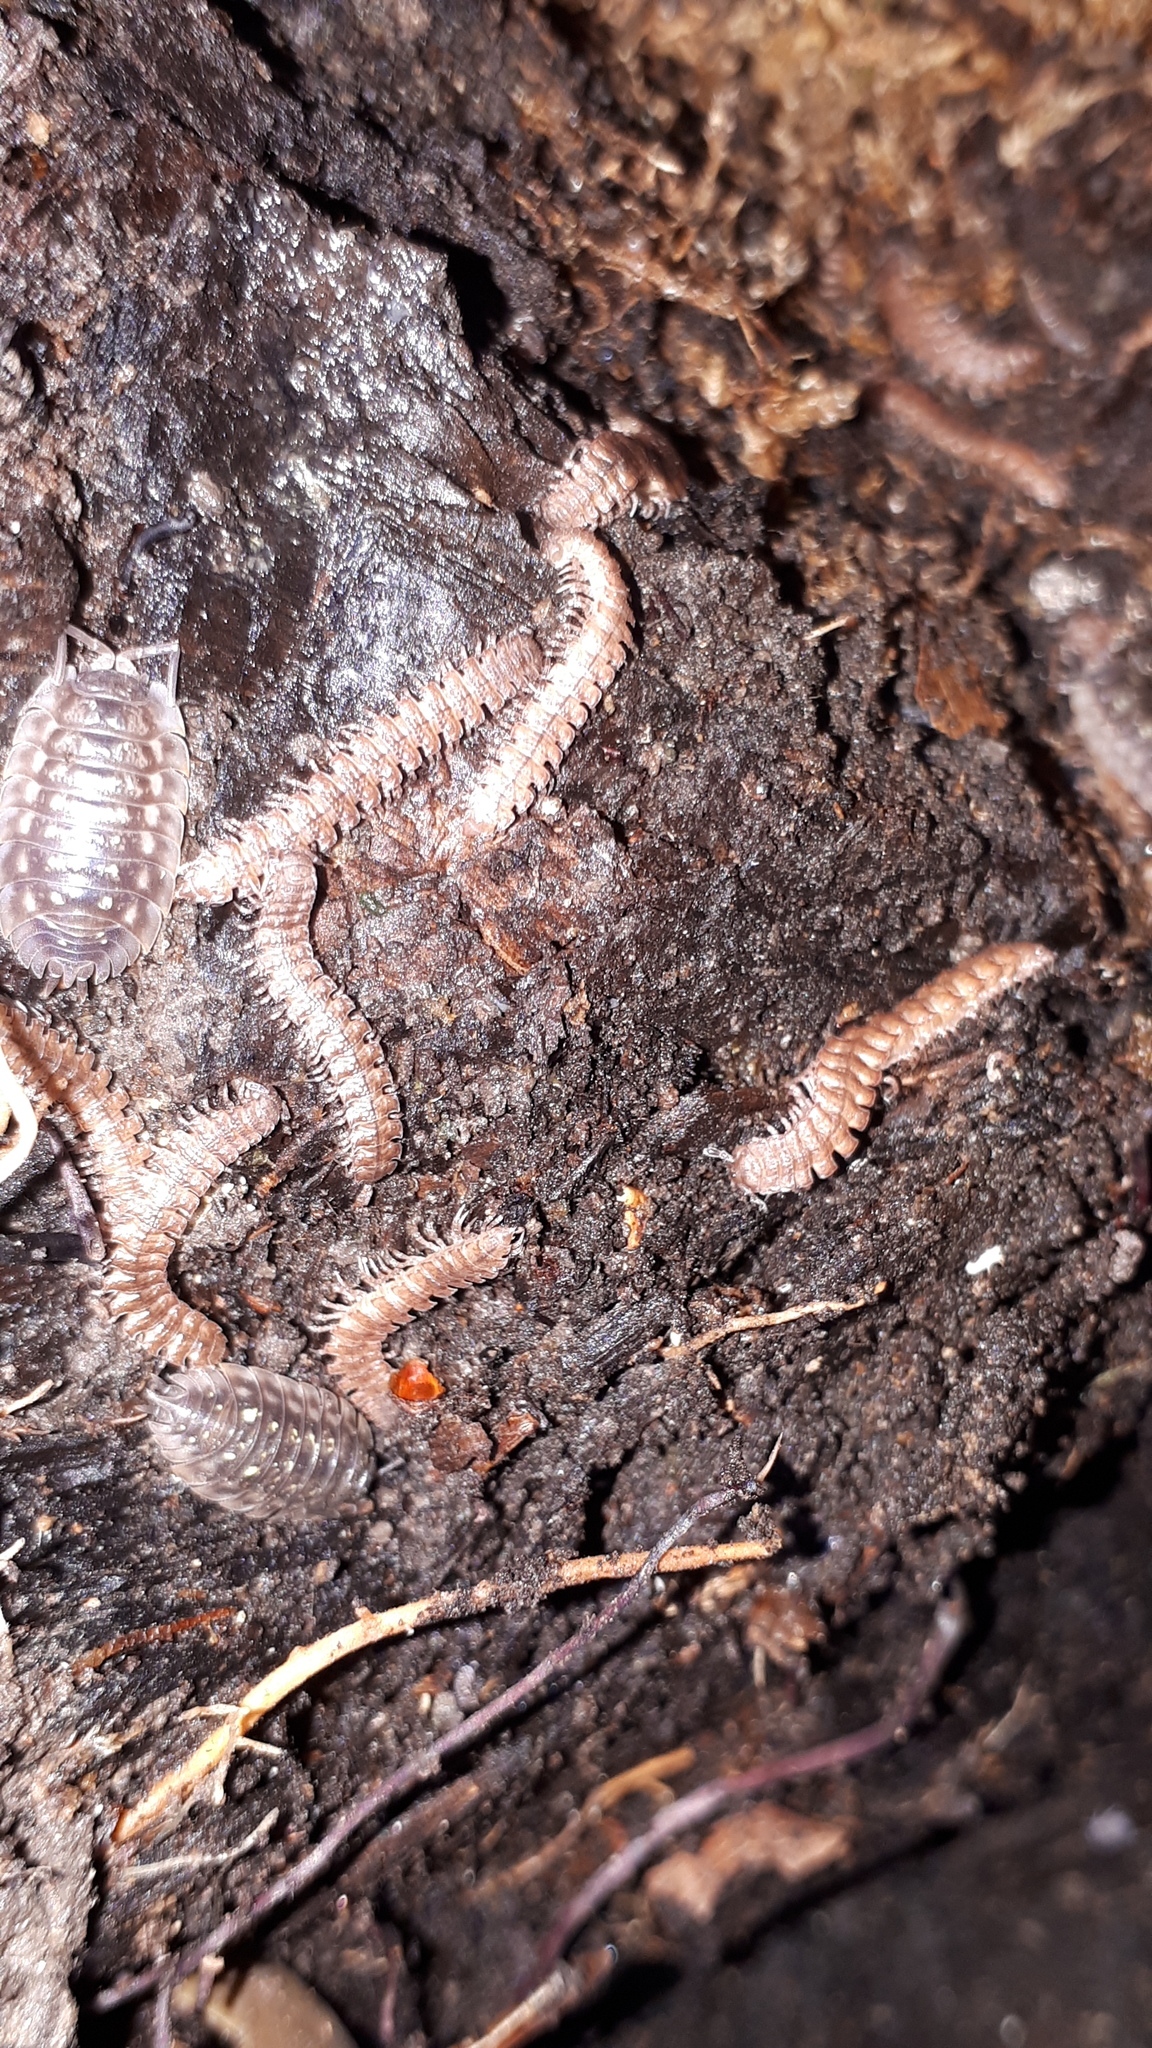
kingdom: Animalia
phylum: Arthropoda
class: Diplopoda
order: Polydesmida
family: Polydesmidae
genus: Polydesmus
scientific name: Polydesmus angustus
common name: Flat millipede
